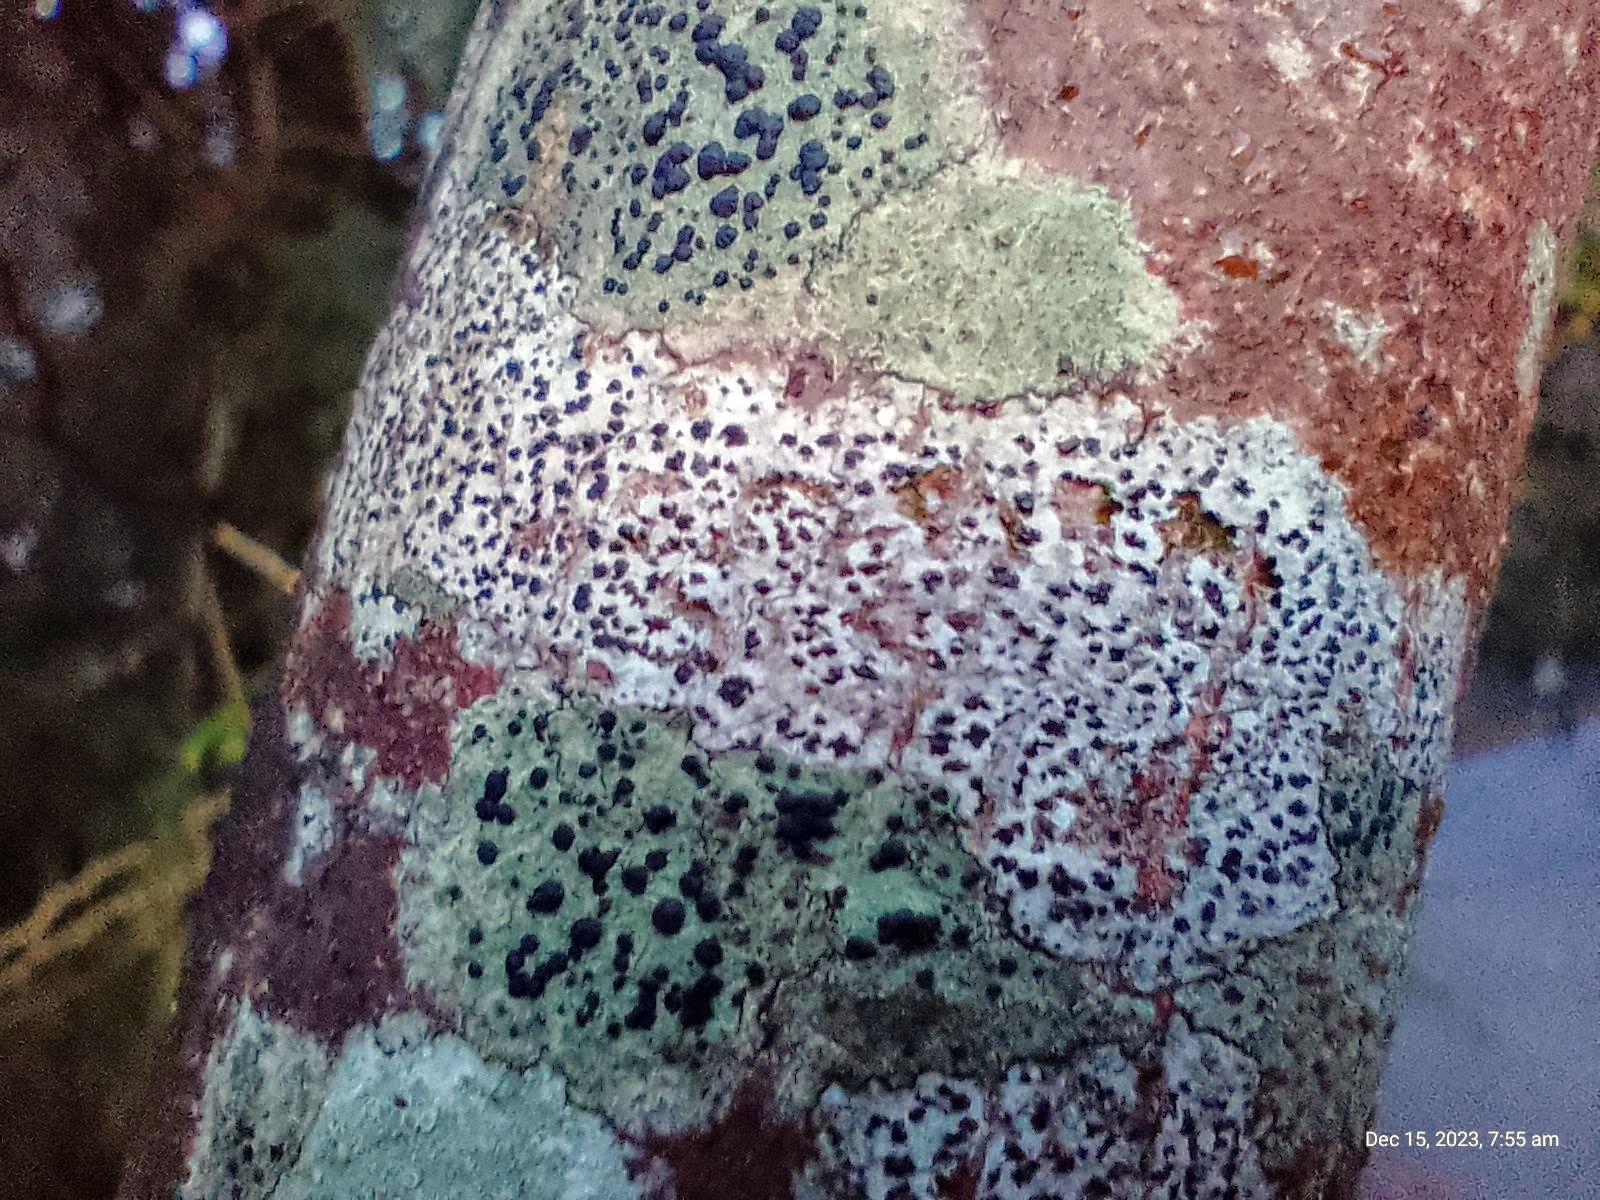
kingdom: Fungi
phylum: Ascomycota
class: Arthoniomycetes
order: Arthoniales
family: Arthoniaceae
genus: Arthonia
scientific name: Arthonia radiata
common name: Asterisk lichen
